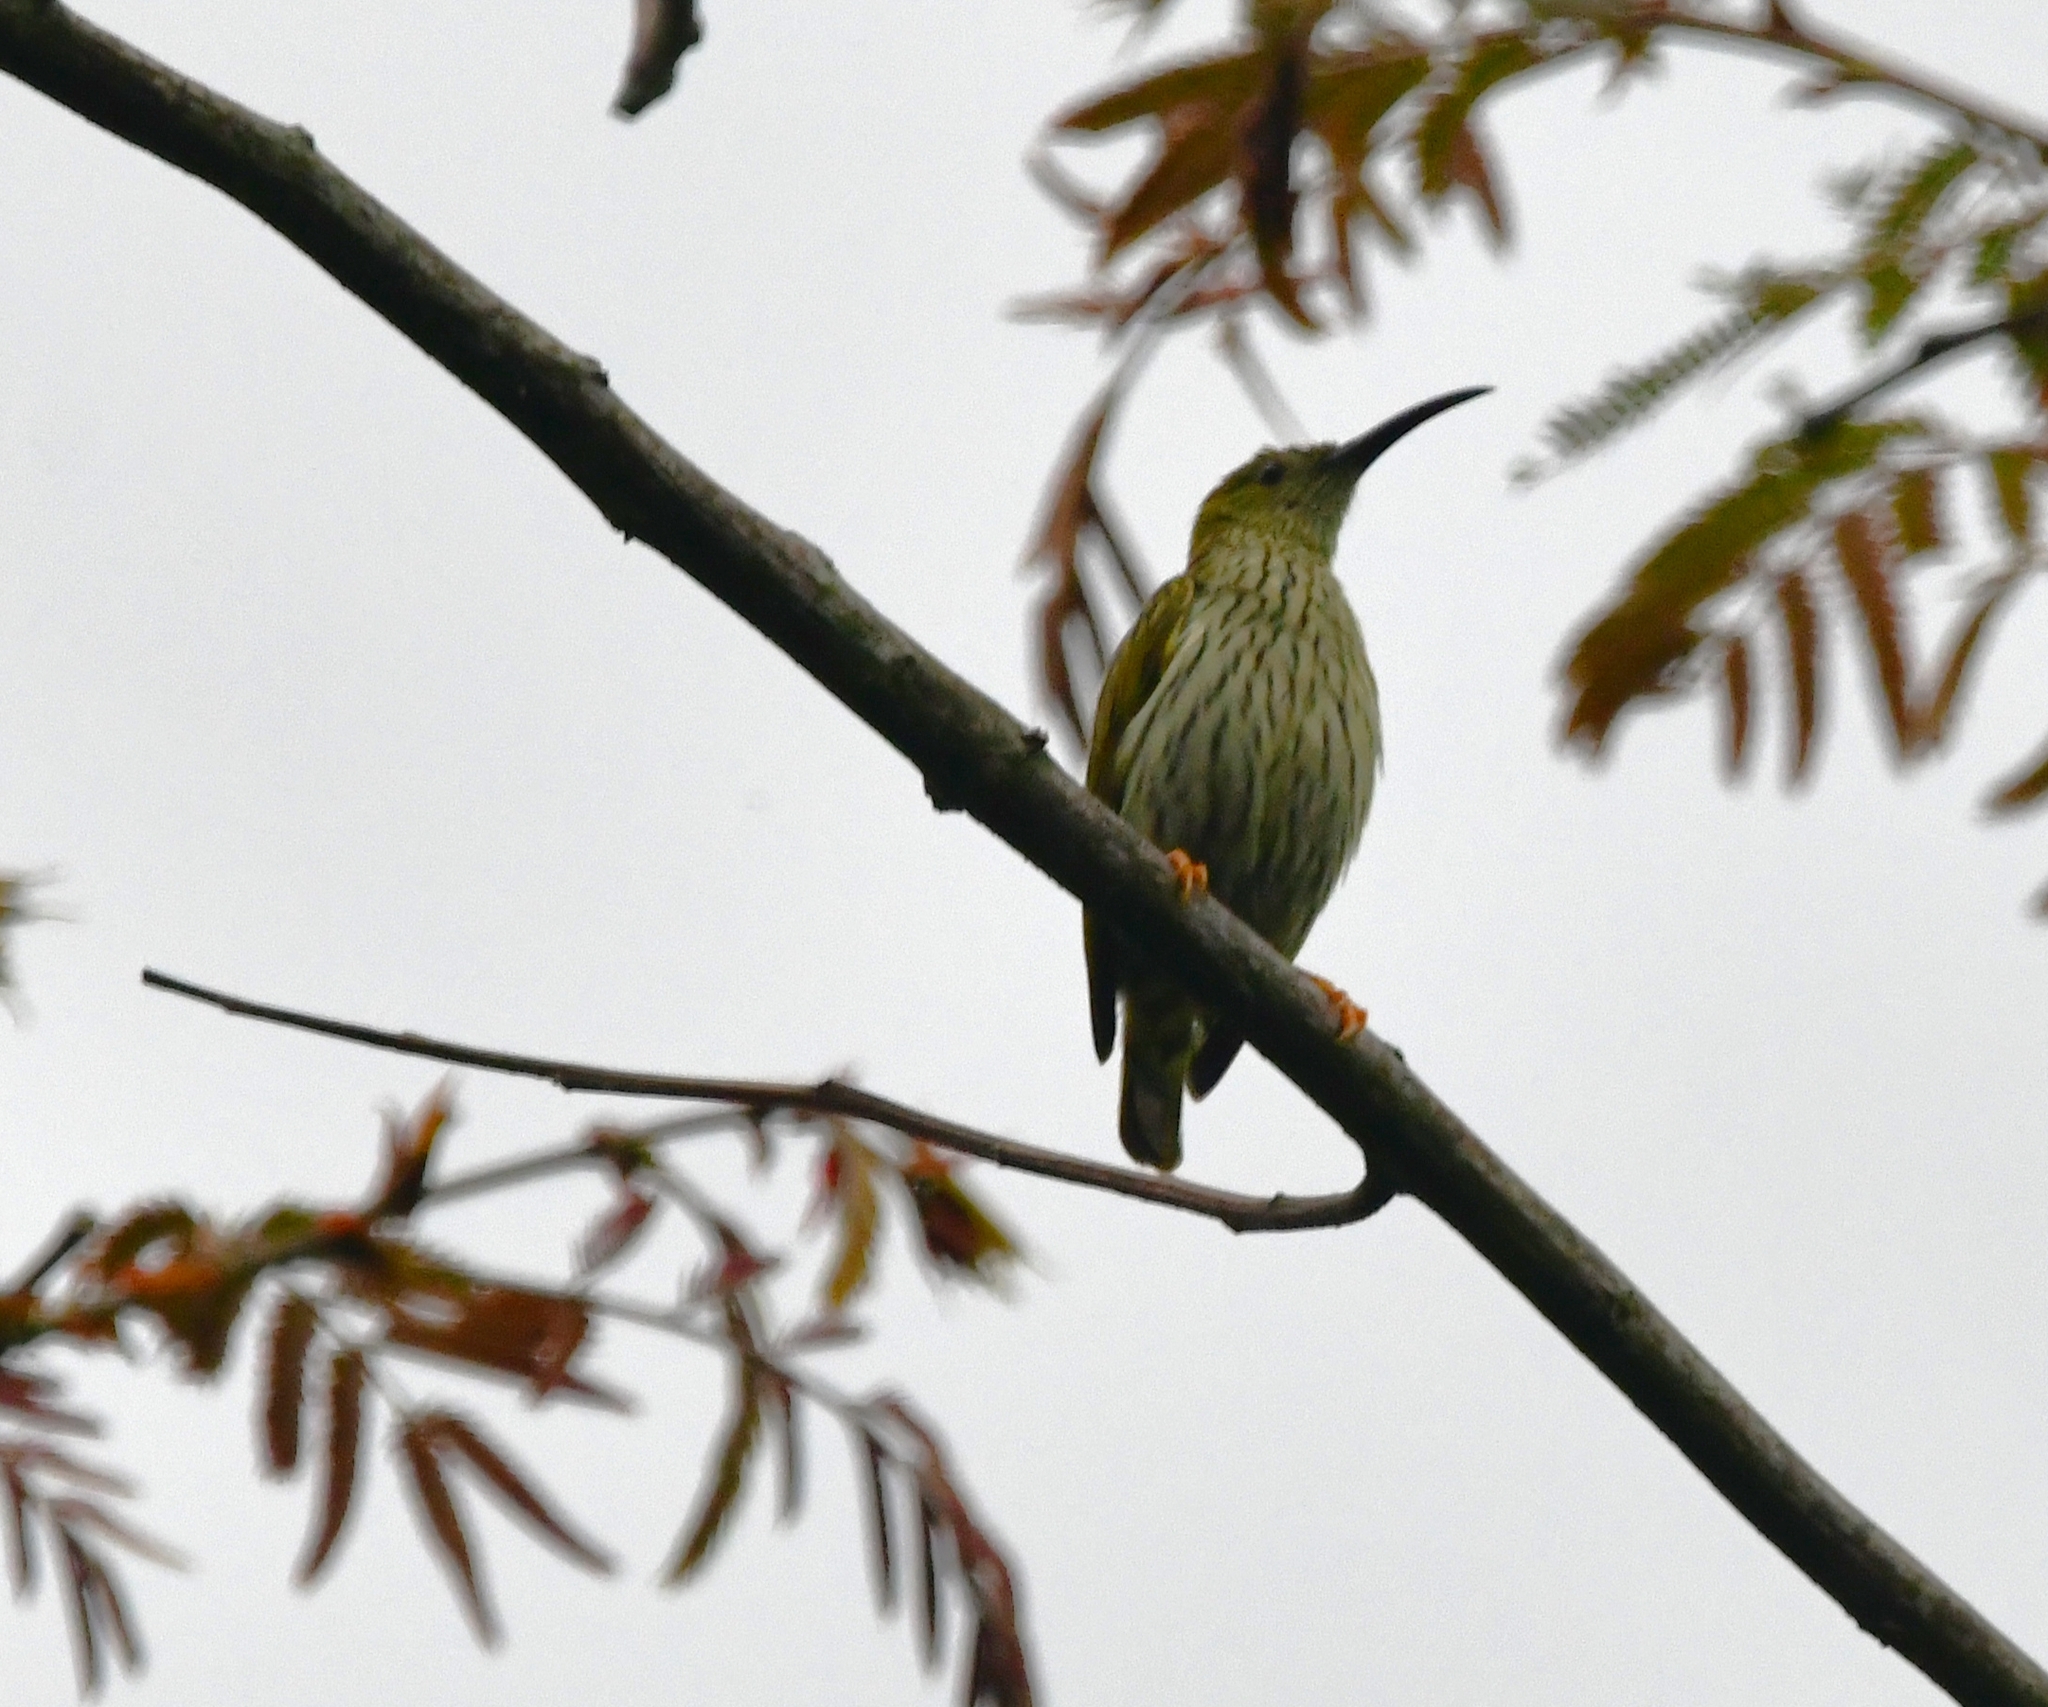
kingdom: Animalia
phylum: Chordata
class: Aves
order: Passeriformes
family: Nectariniidae
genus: Arachnothera
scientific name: Arachnothera magna
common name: Streaked spiderhunter
